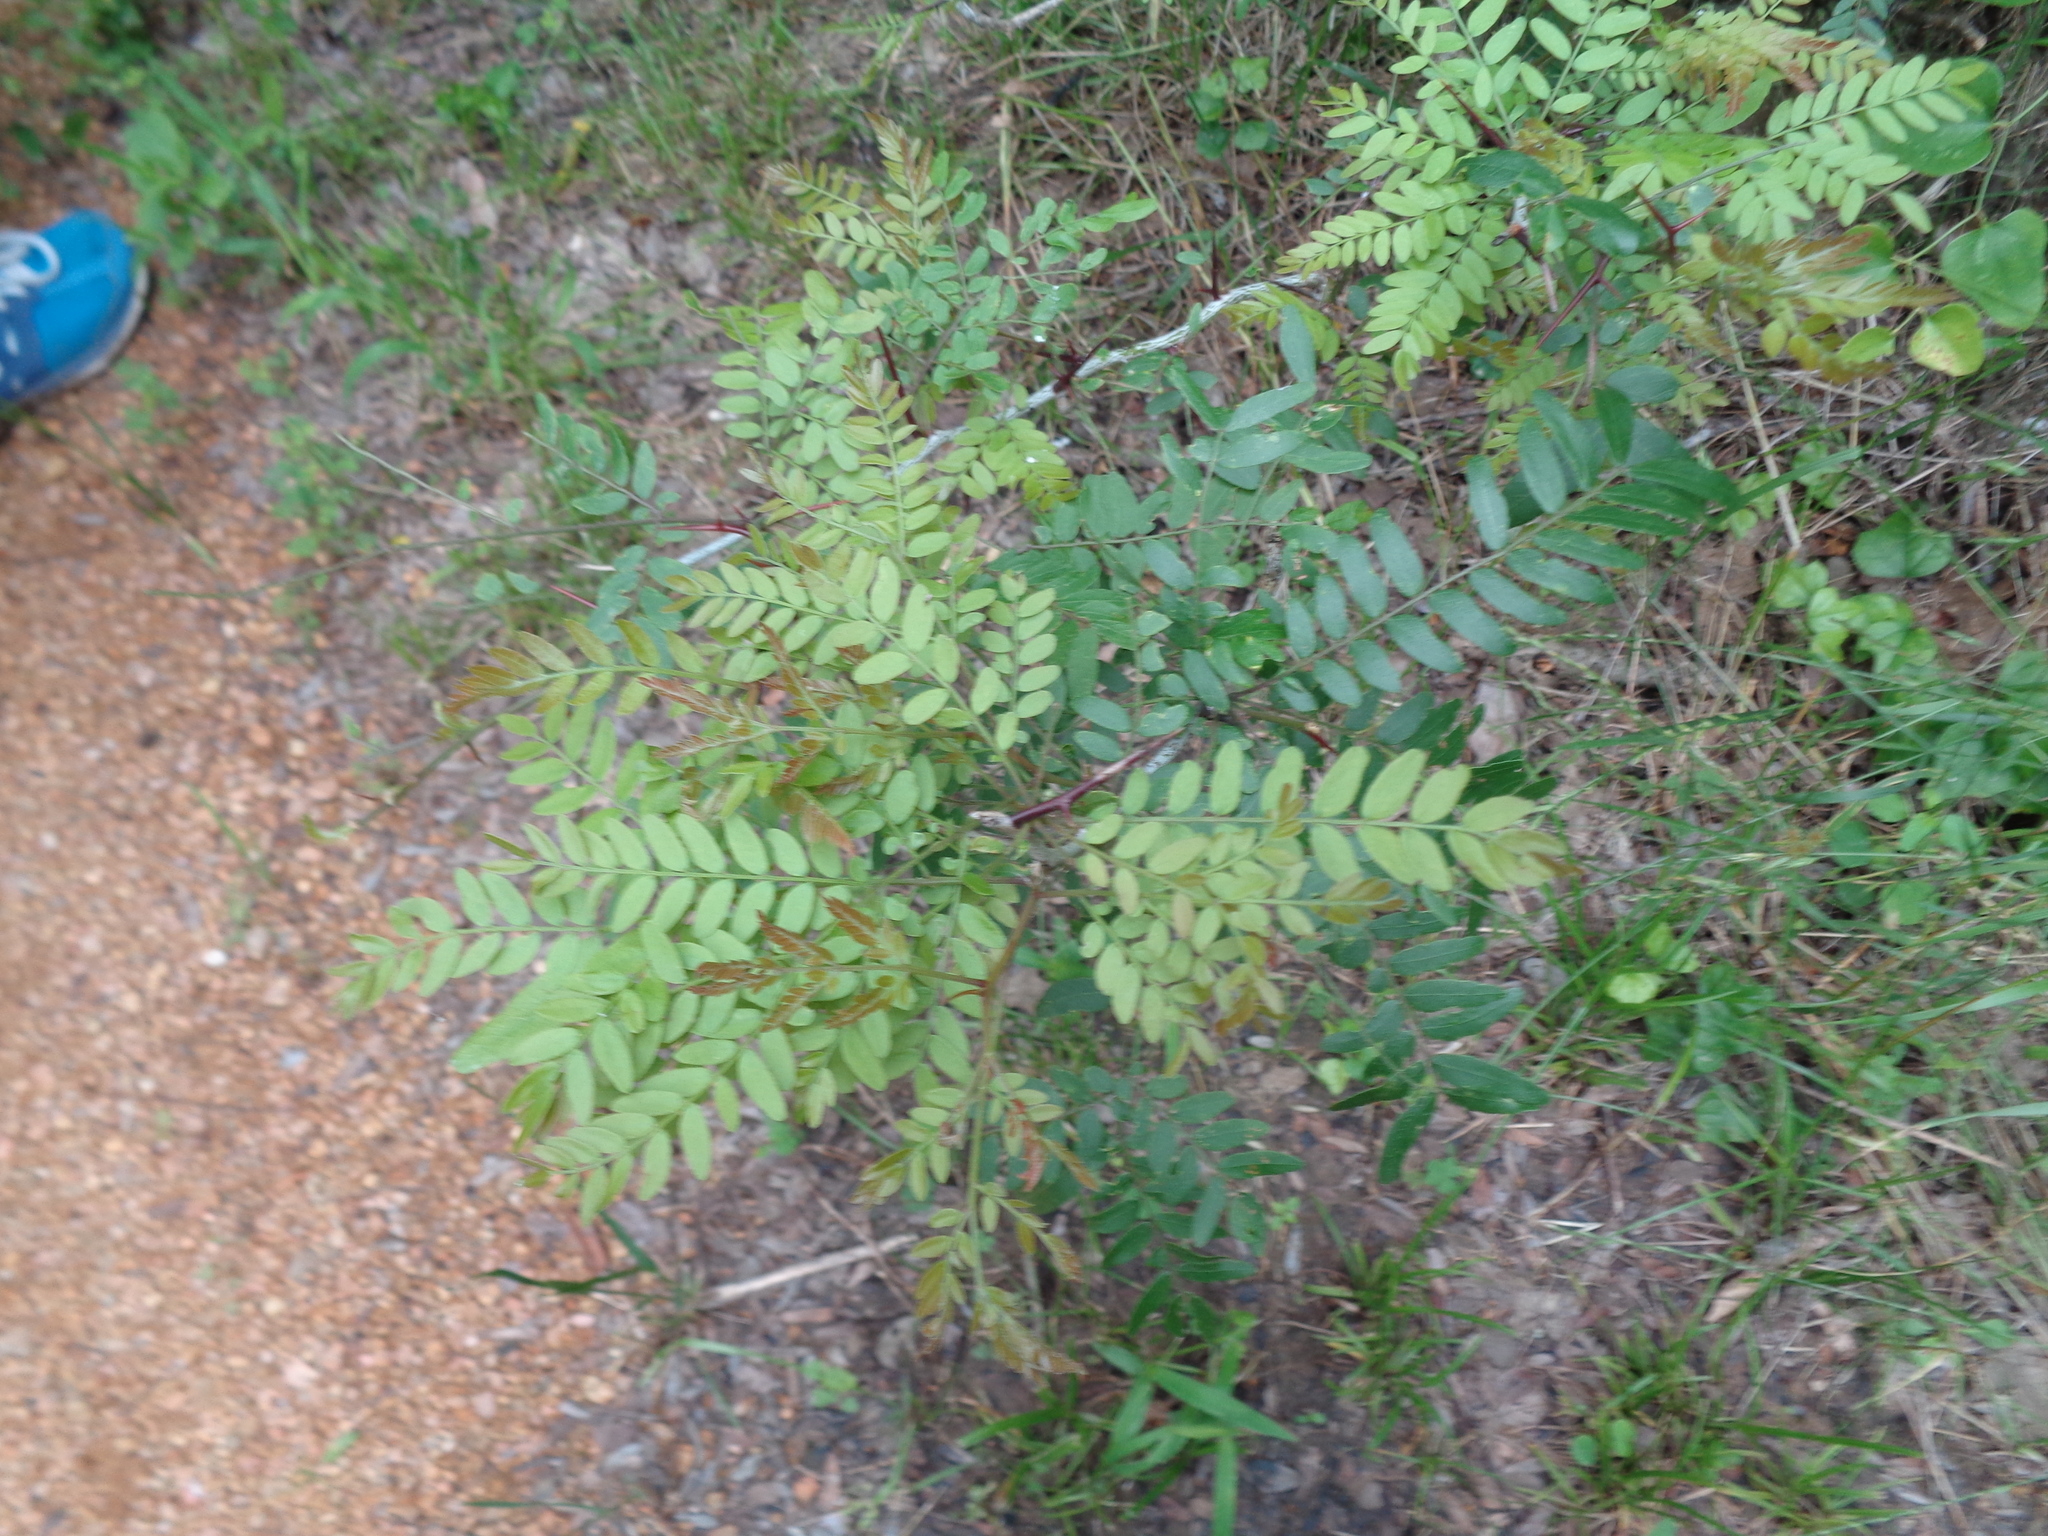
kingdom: Plantae
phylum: Tracheophyta
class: Magnoliopsida
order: Fabales
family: Fabaceae
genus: Gleditsia
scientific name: Gleditsia triacanthos
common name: Common honeylocust
